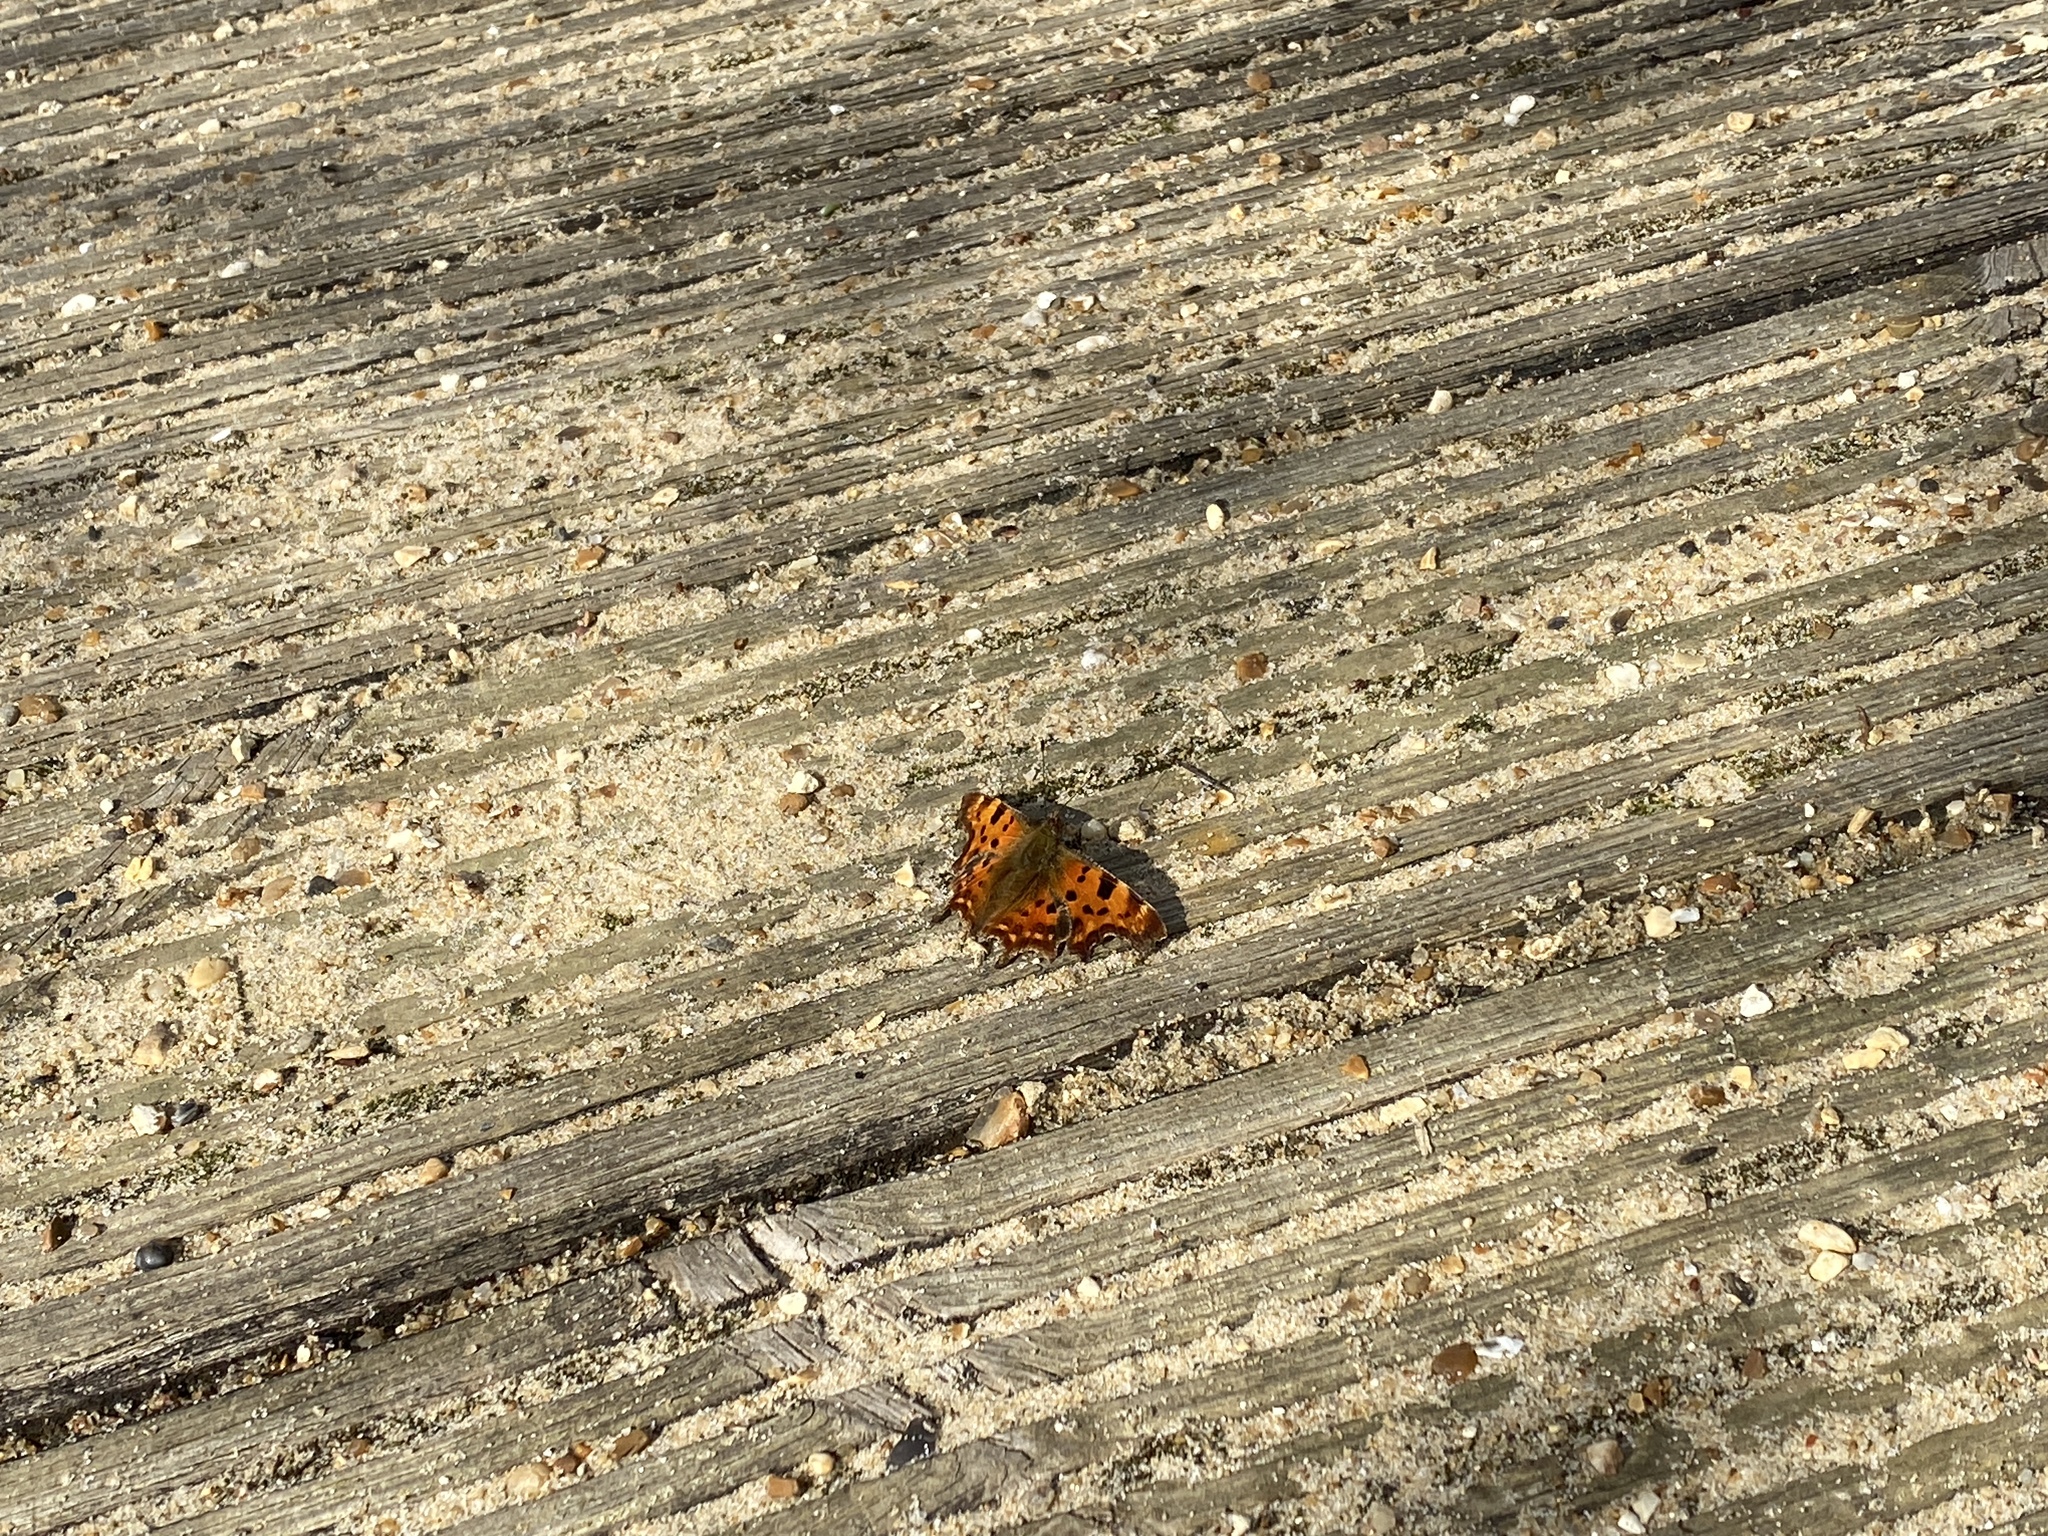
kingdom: Animalia
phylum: Arthropoda
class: Insecta
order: Lepidoptera
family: Nymphalidae
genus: Polygonia
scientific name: Polygonia c-album
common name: Comma
